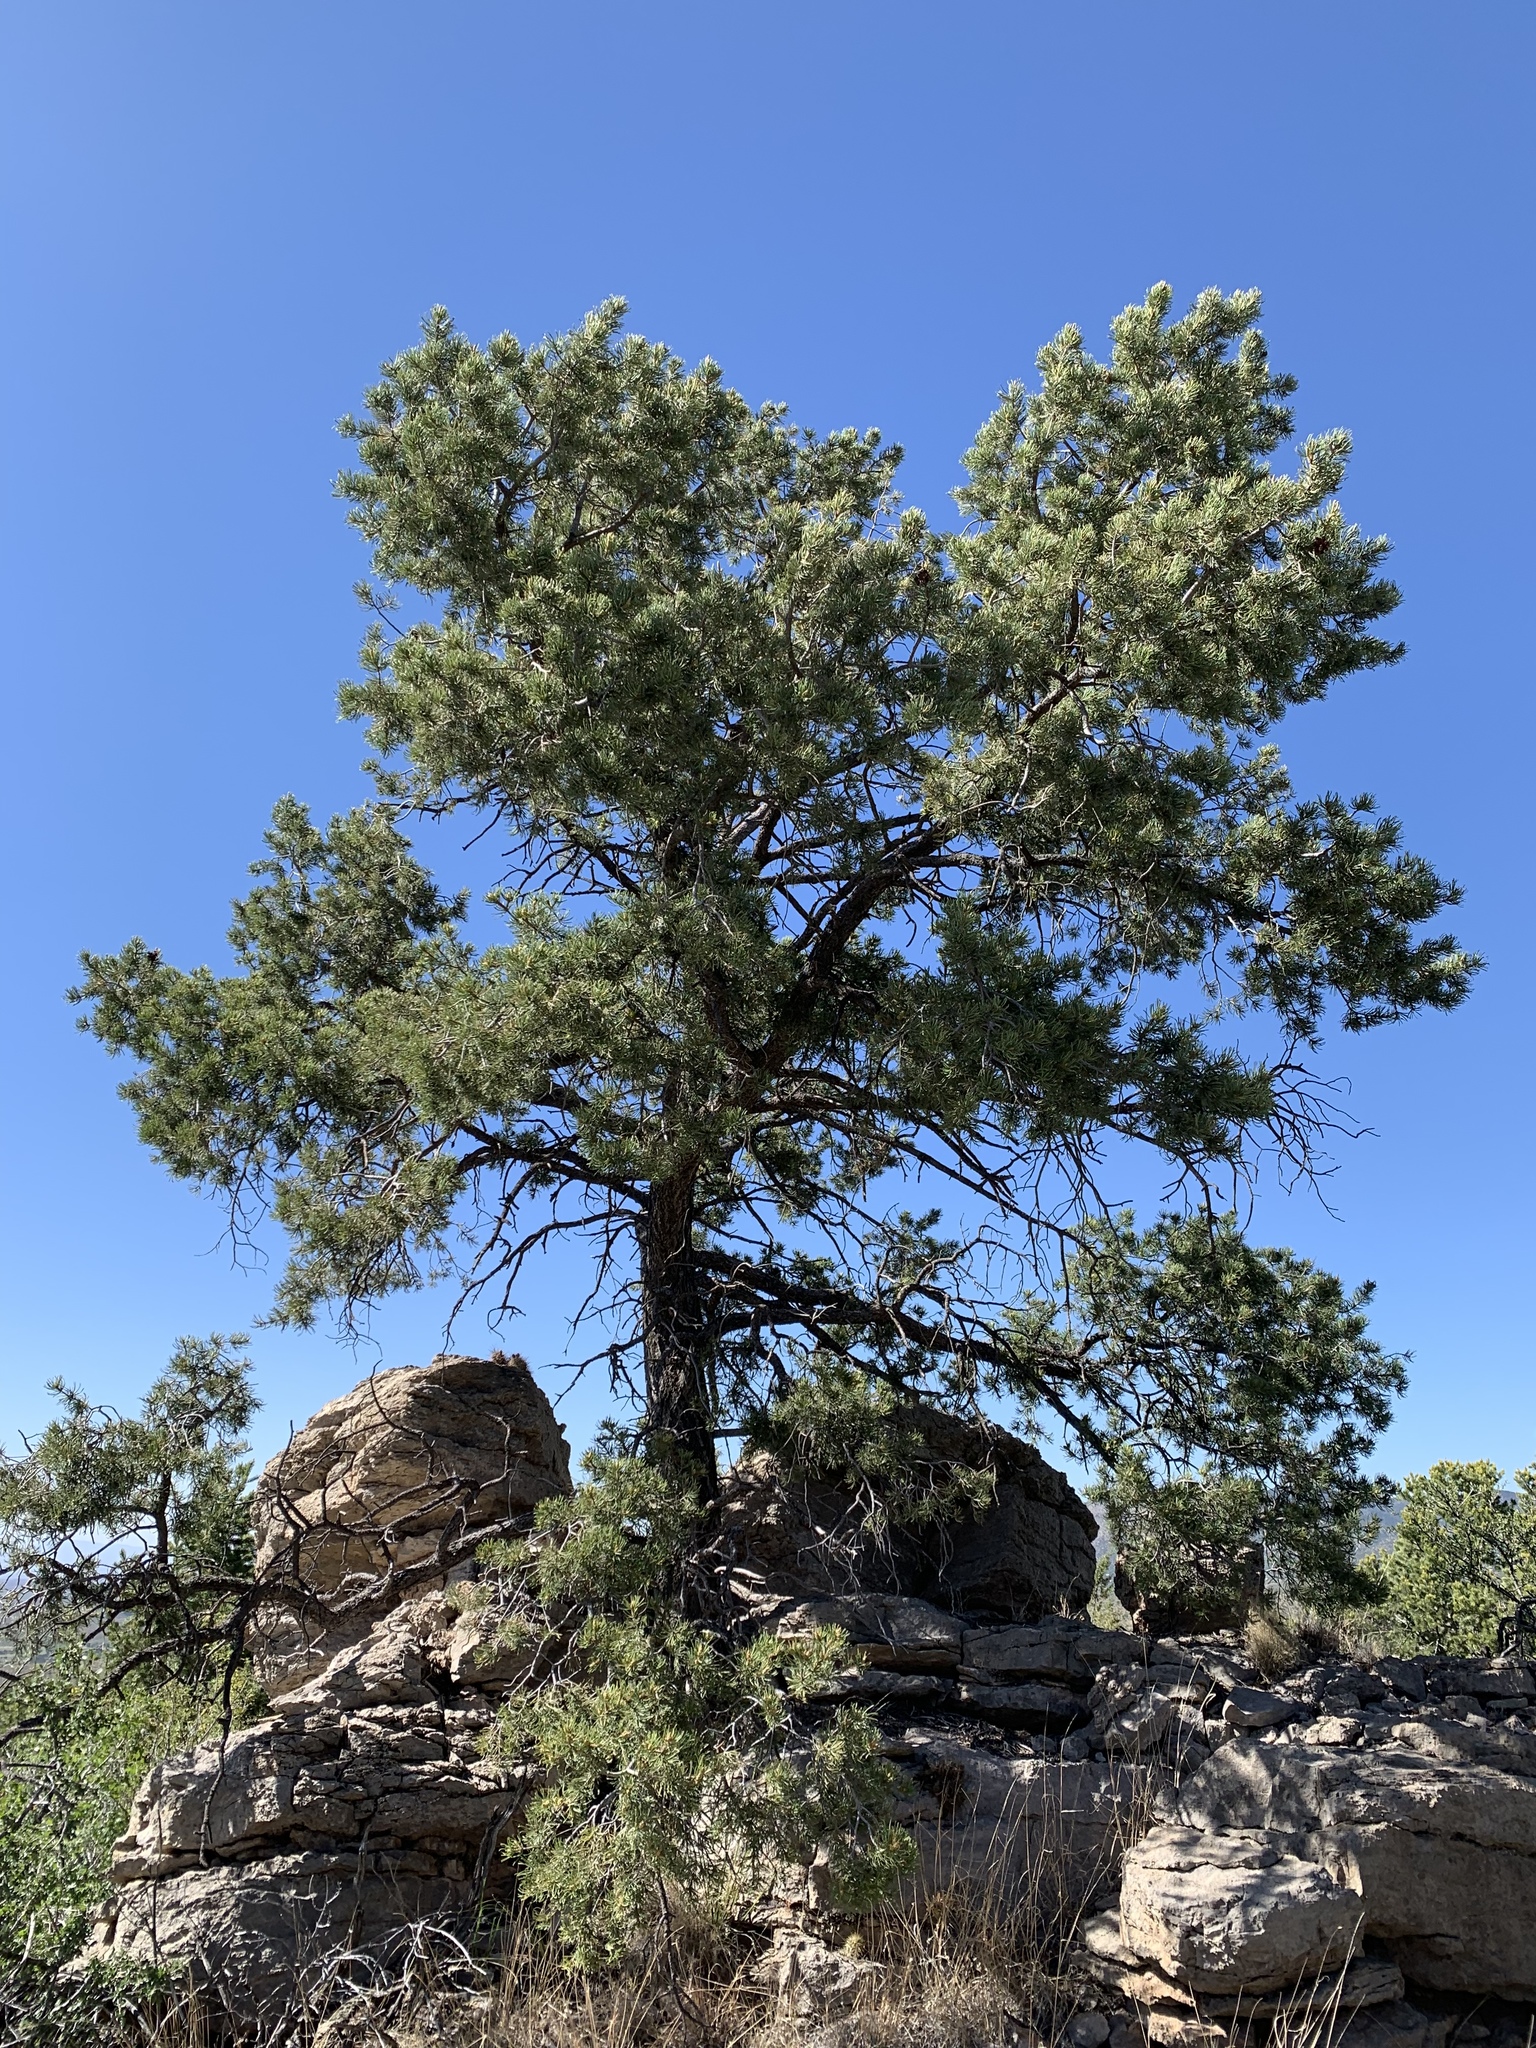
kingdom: Plantae
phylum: Tracheophyta
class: Pinopsida
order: Pinales
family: Pinaceae
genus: Pinus
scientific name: Pinus edulis
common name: Colorado pinyon
